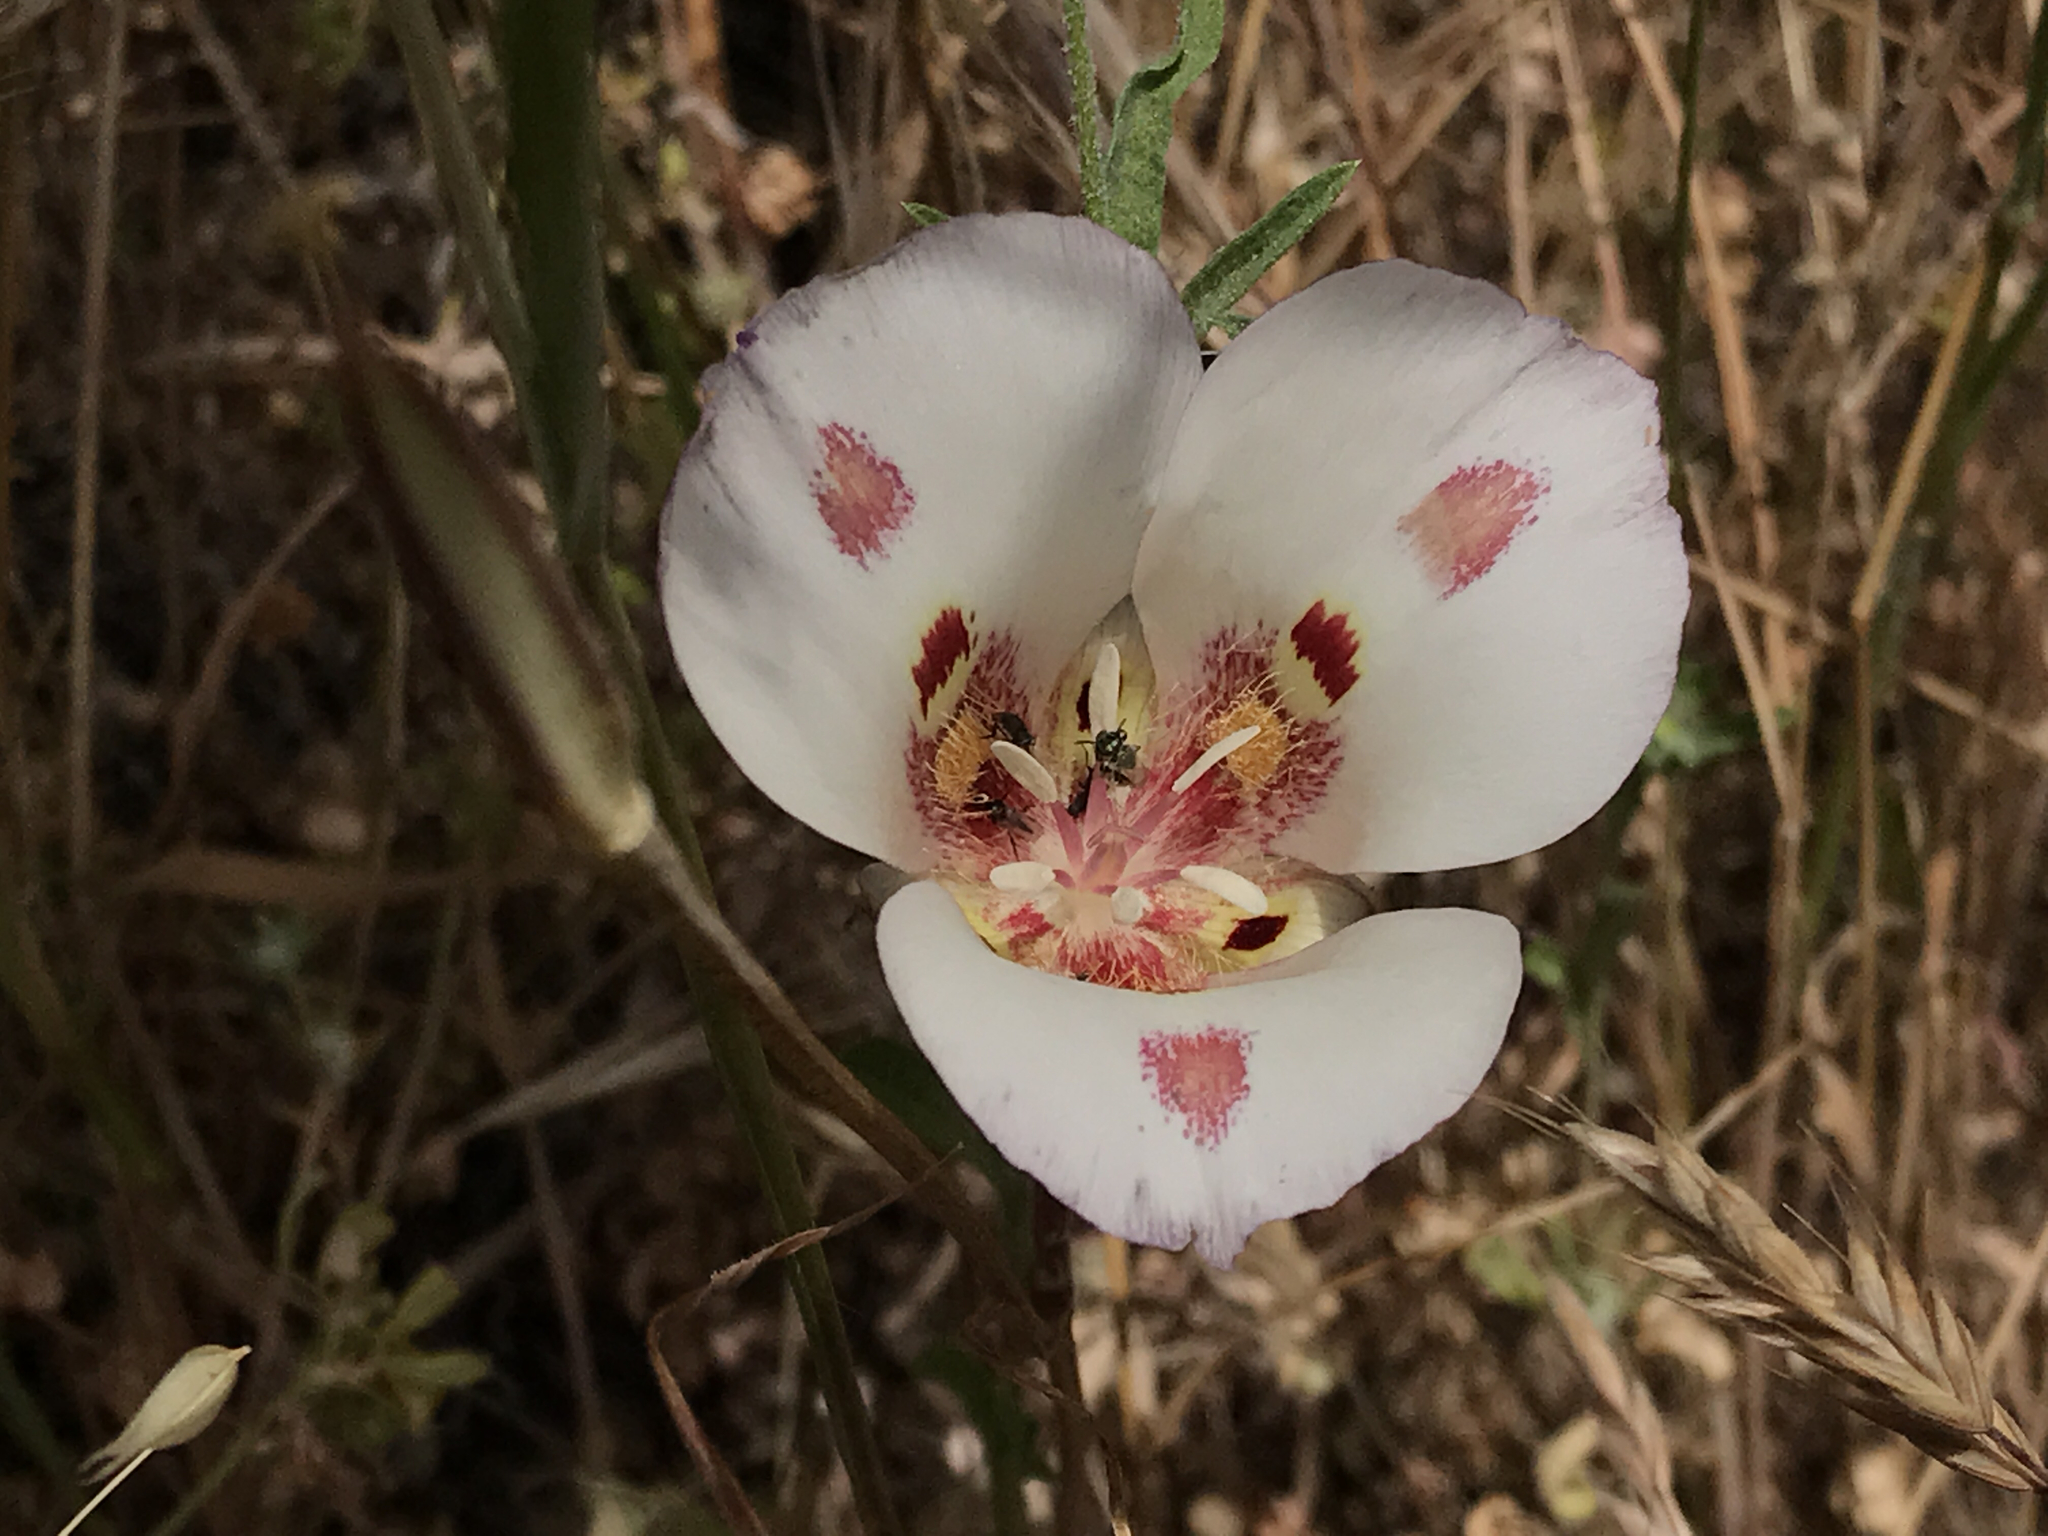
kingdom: Plantae
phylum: Tracheophyta
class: Liliopsida
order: Liliales
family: Liliaceae
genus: Calochortus
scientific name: Calochortus venustus
